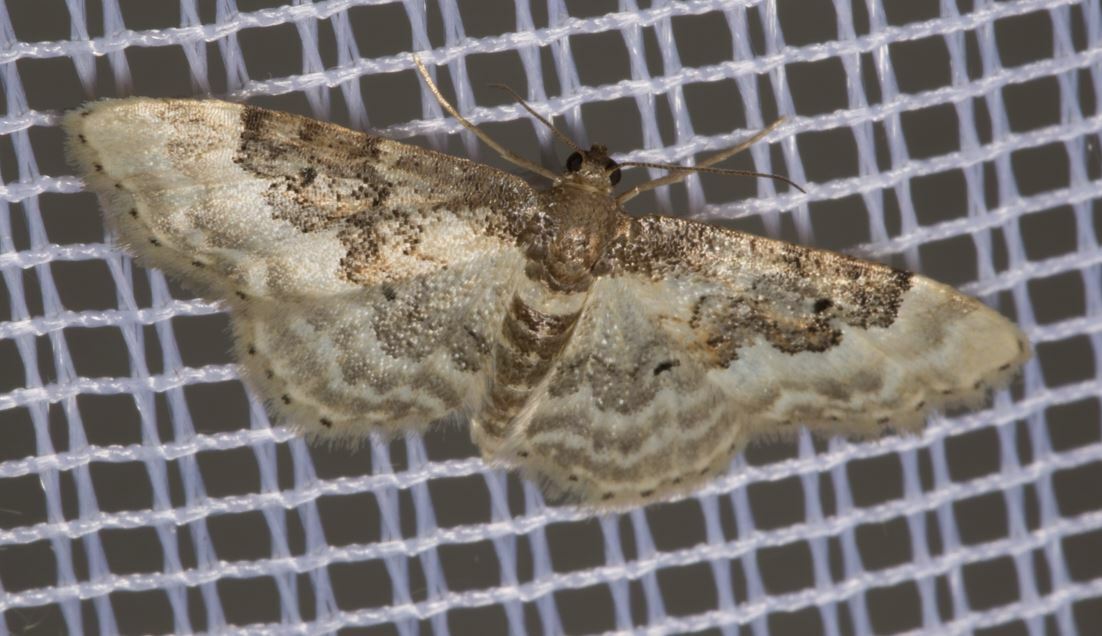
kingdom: Animalia
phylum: Arthropoda
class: Insecta
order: Lepidoptera
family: Geometridae
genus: Idaea
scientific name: Idaea rusticata
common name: Least carpet
